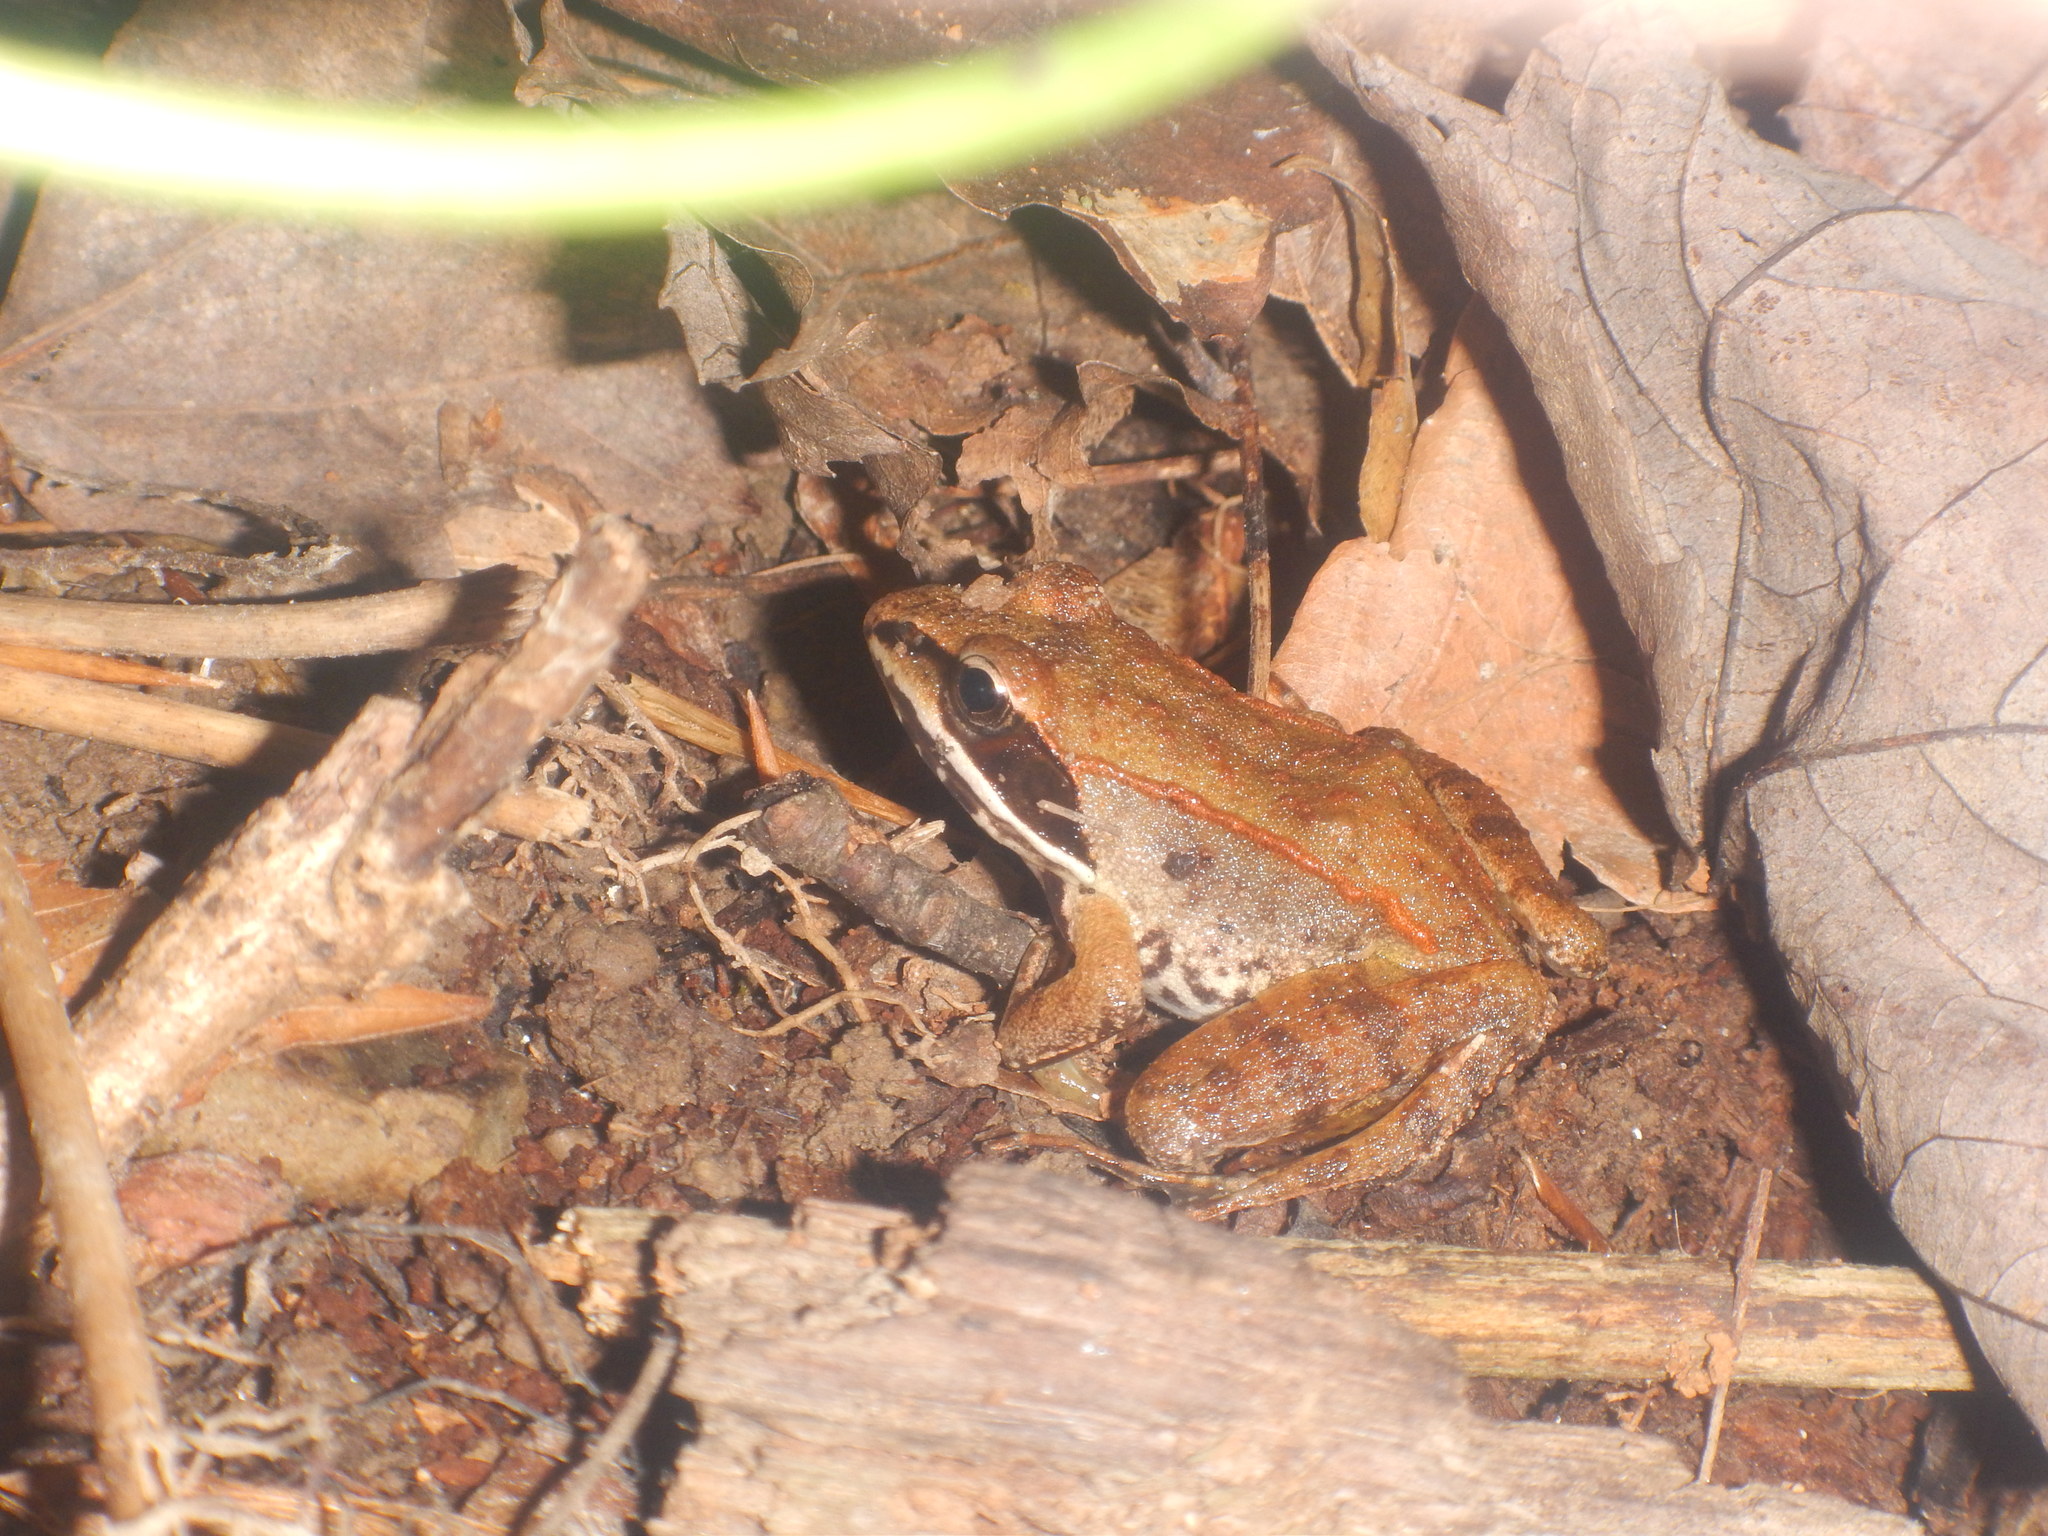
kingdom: Animalia
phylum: Chordata
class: Amphibia
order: Anura
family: Ranidae
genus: Lithobates
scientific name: Lithobates sylvaticus
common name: Wood frog
